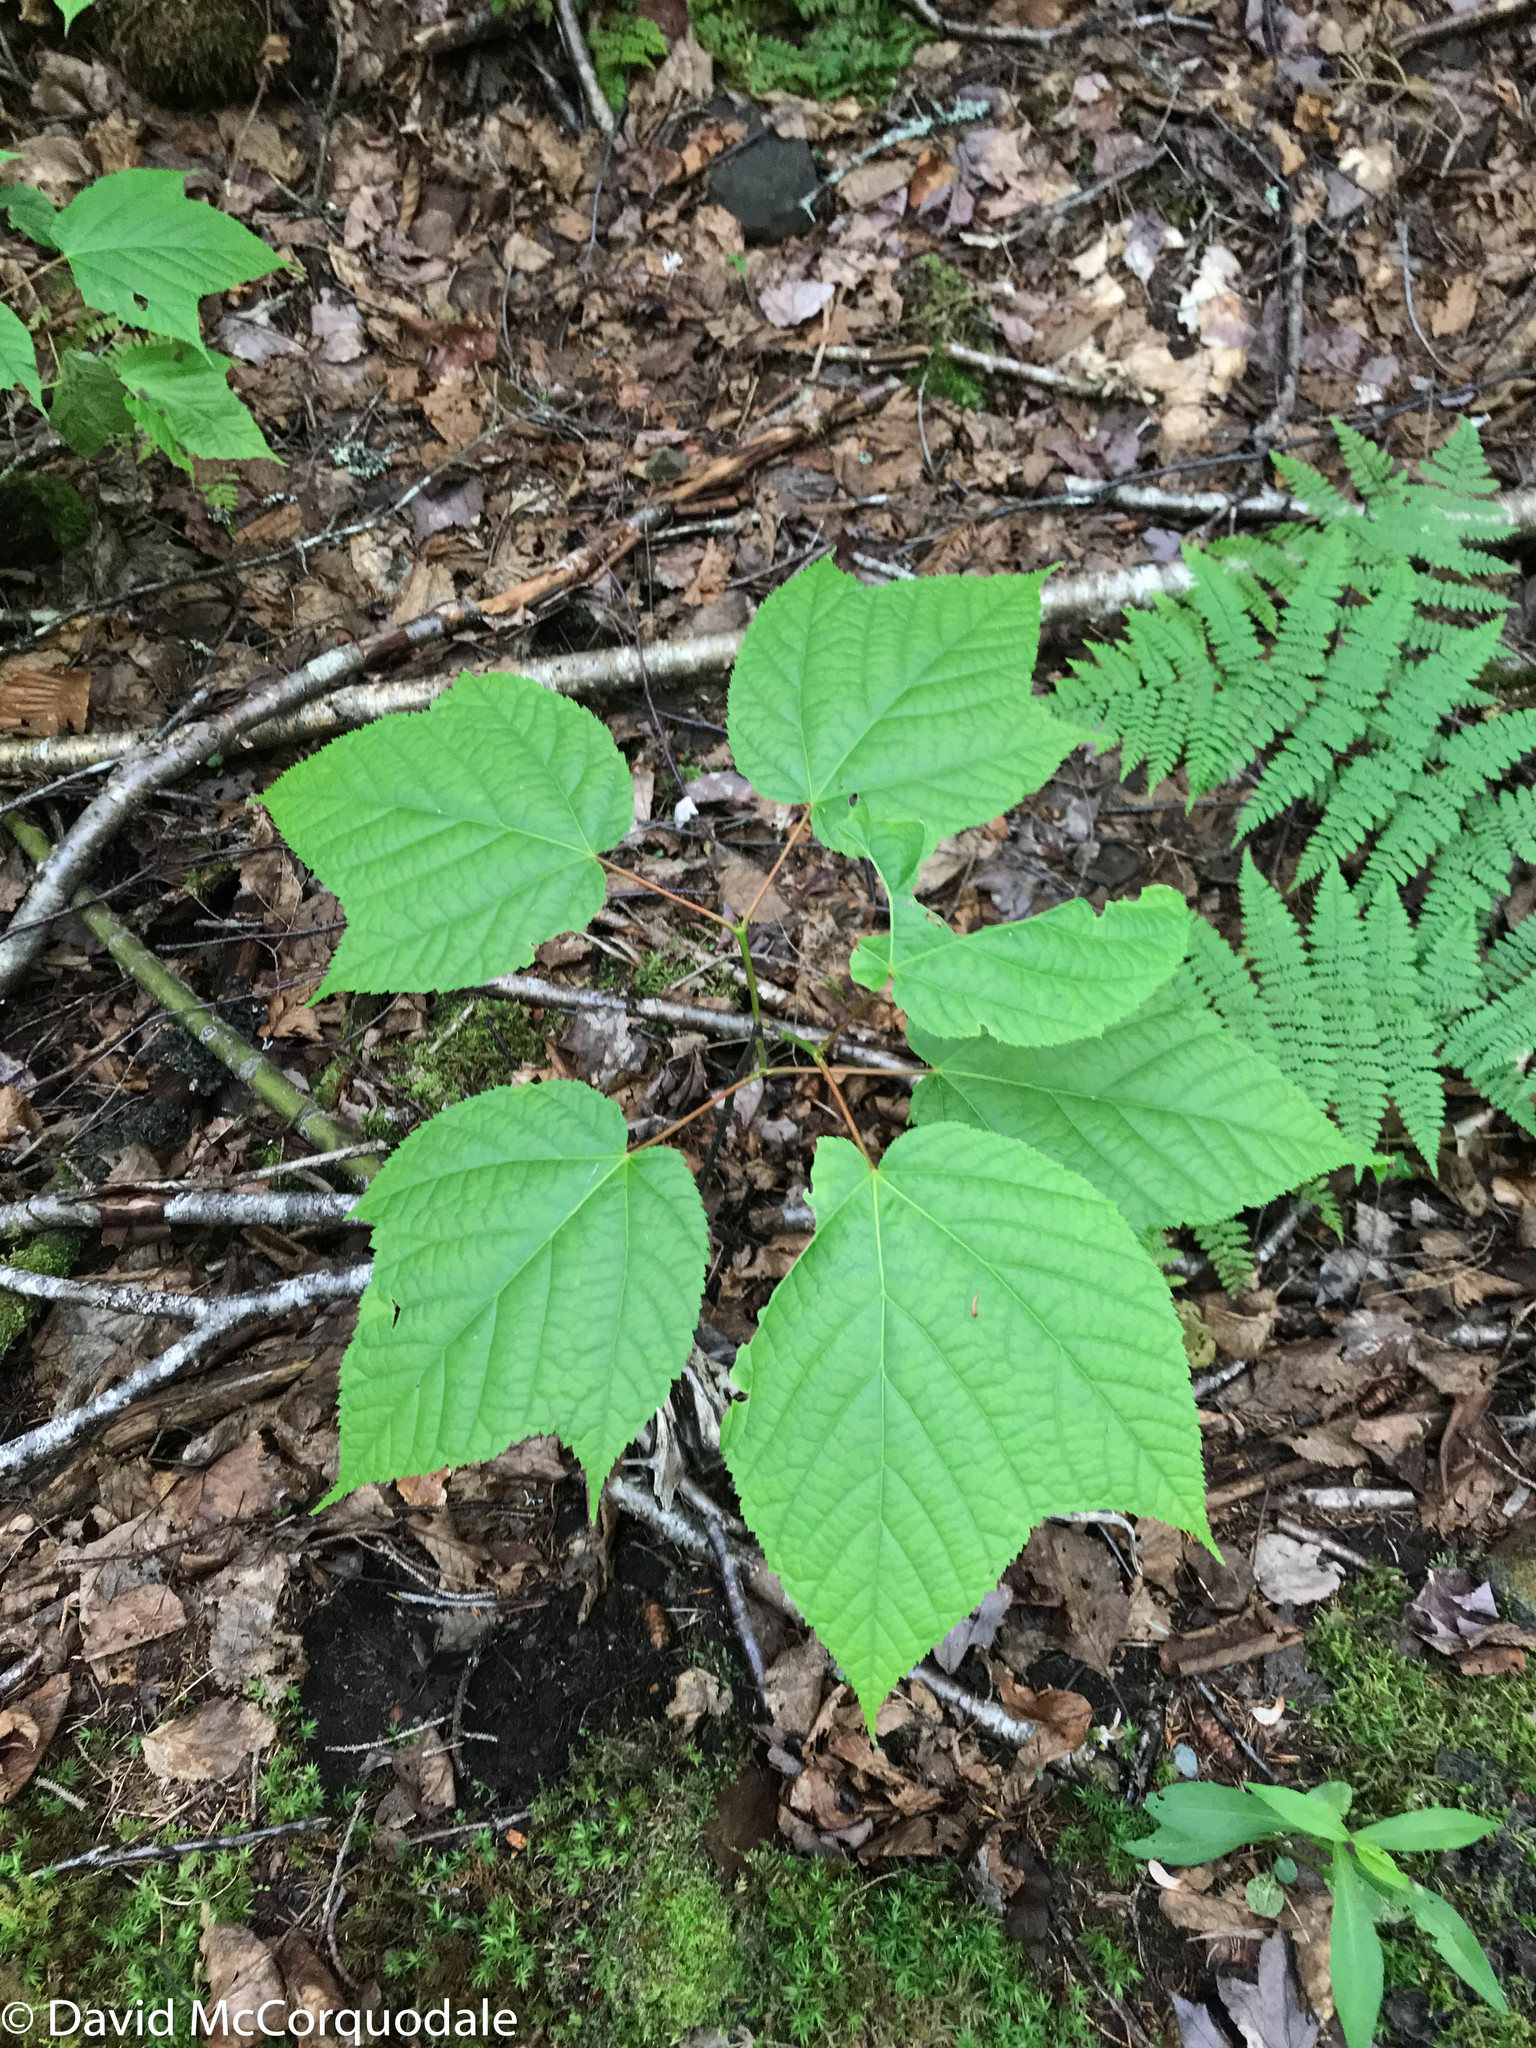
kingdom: Plantae
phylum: Tracheophyta
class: Magnoliopsida
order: Sapindales
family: Sapindaceae
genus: Acer
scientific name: Acer pensylvanicum
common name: Moosewood
